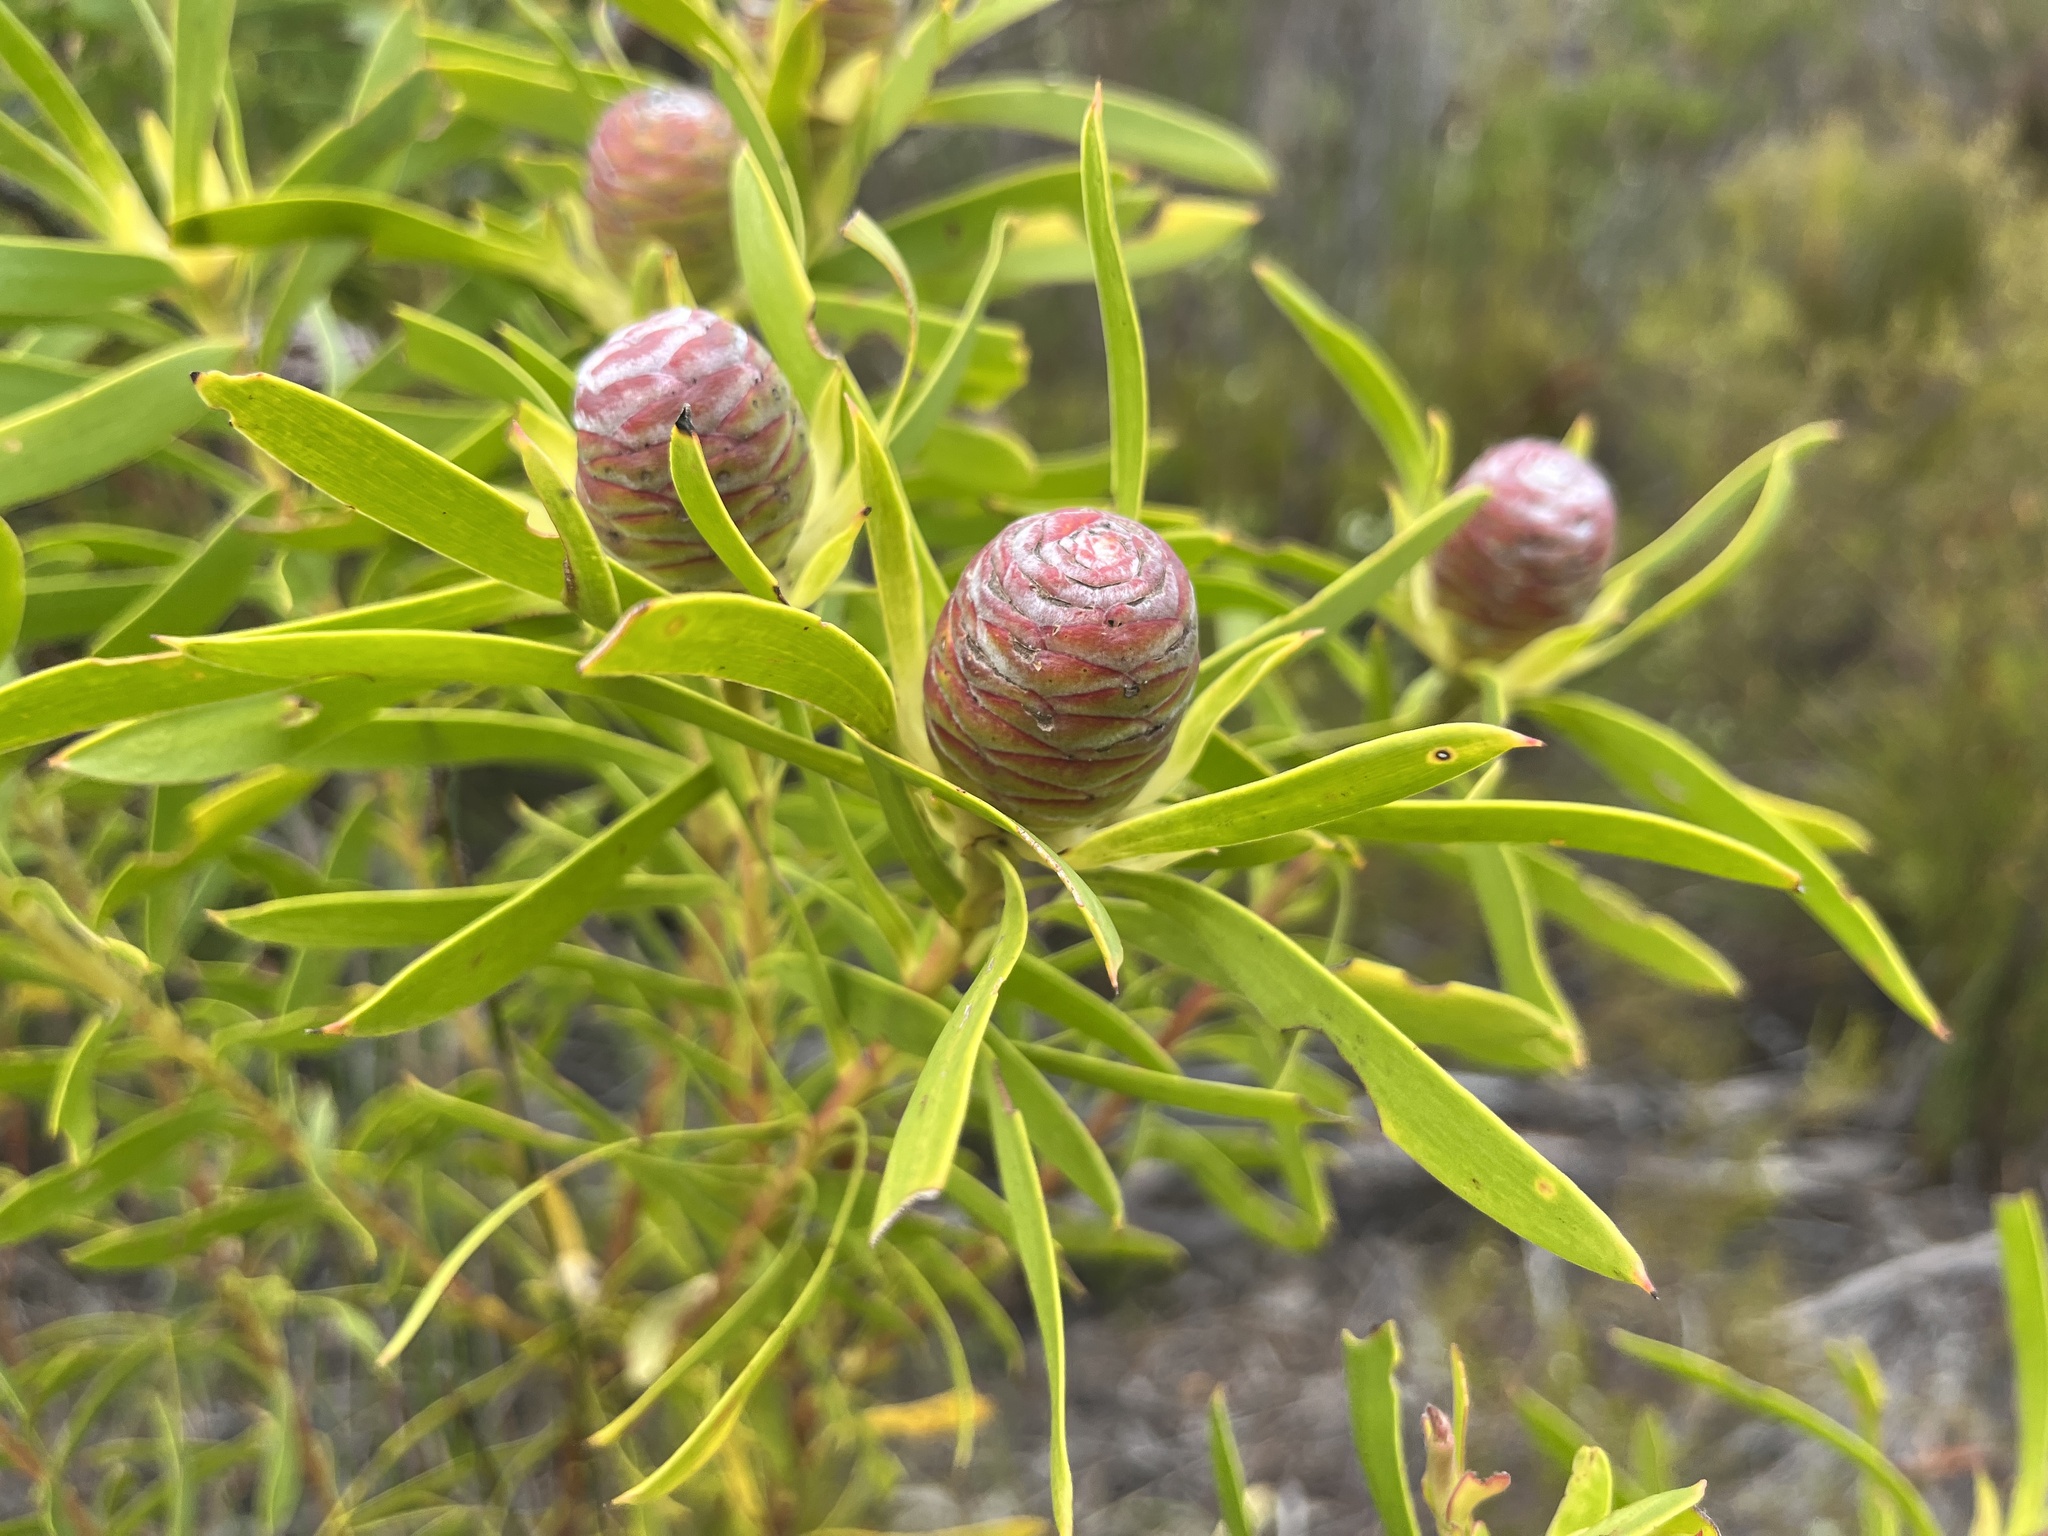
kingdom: Plantae
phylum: Tracheophyta
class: Magnoliopsida
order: Proteales
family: Proteaceae
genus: Leucadendron
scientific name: Leucadendron coniferum
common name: Dune conebush
